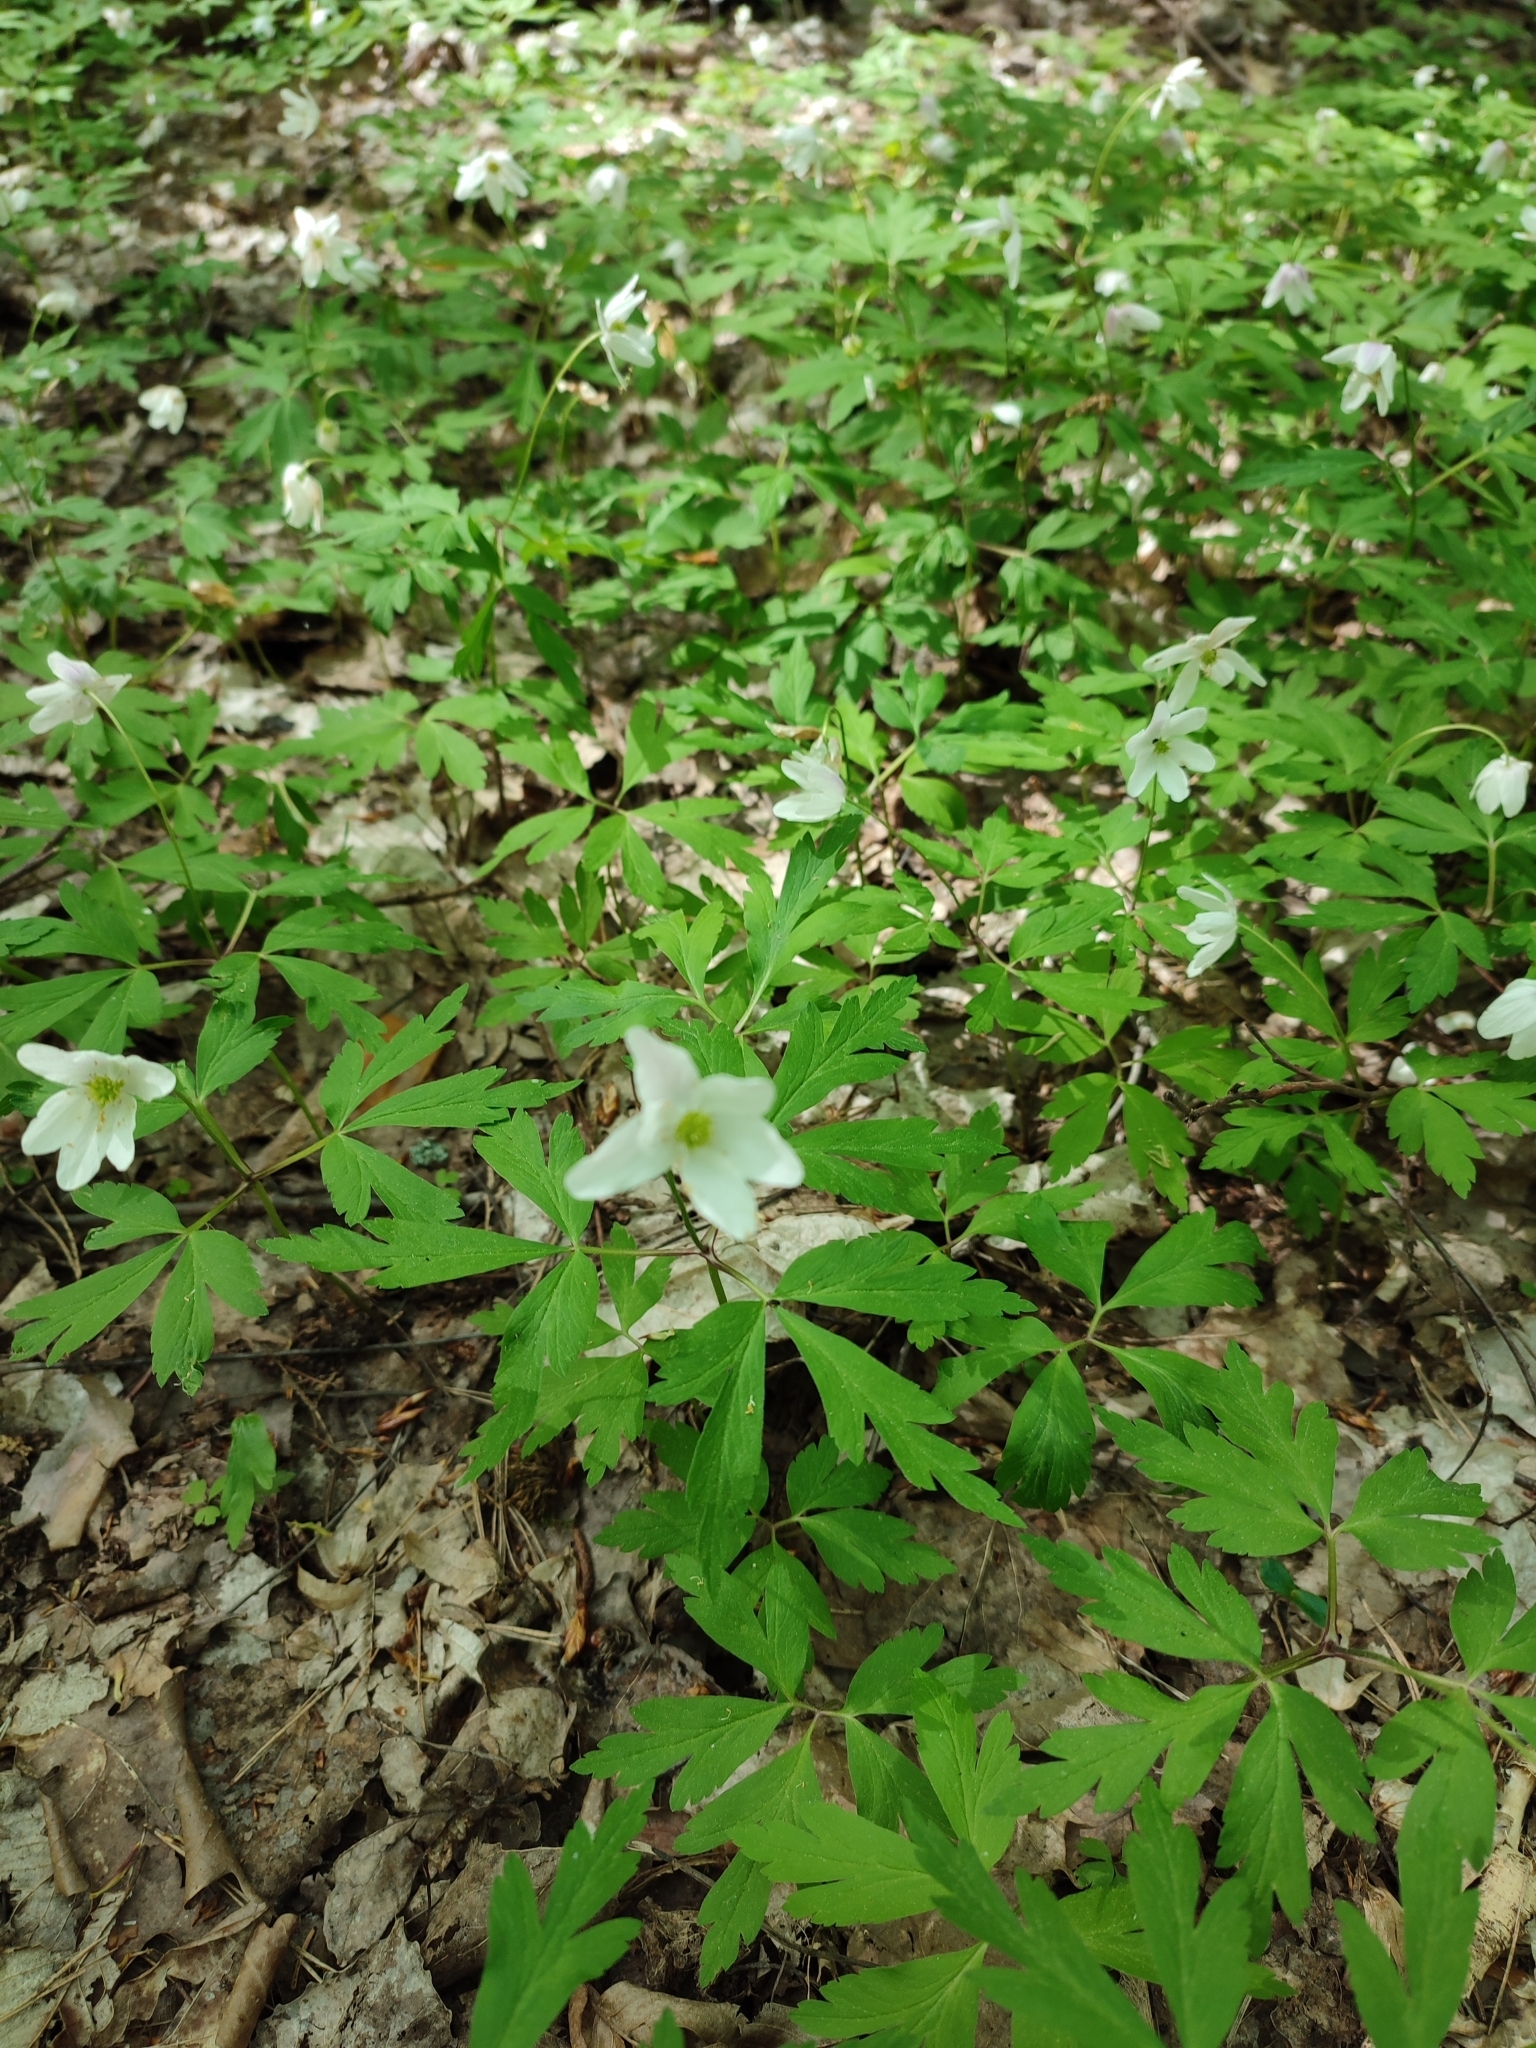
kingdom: Plantae
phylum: Tracheophyta
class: Magnoliopsida
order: Ranunculales
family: Ranunculaceae
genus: Anemone
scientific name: Anemone nemorosa
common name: Wood anemone
